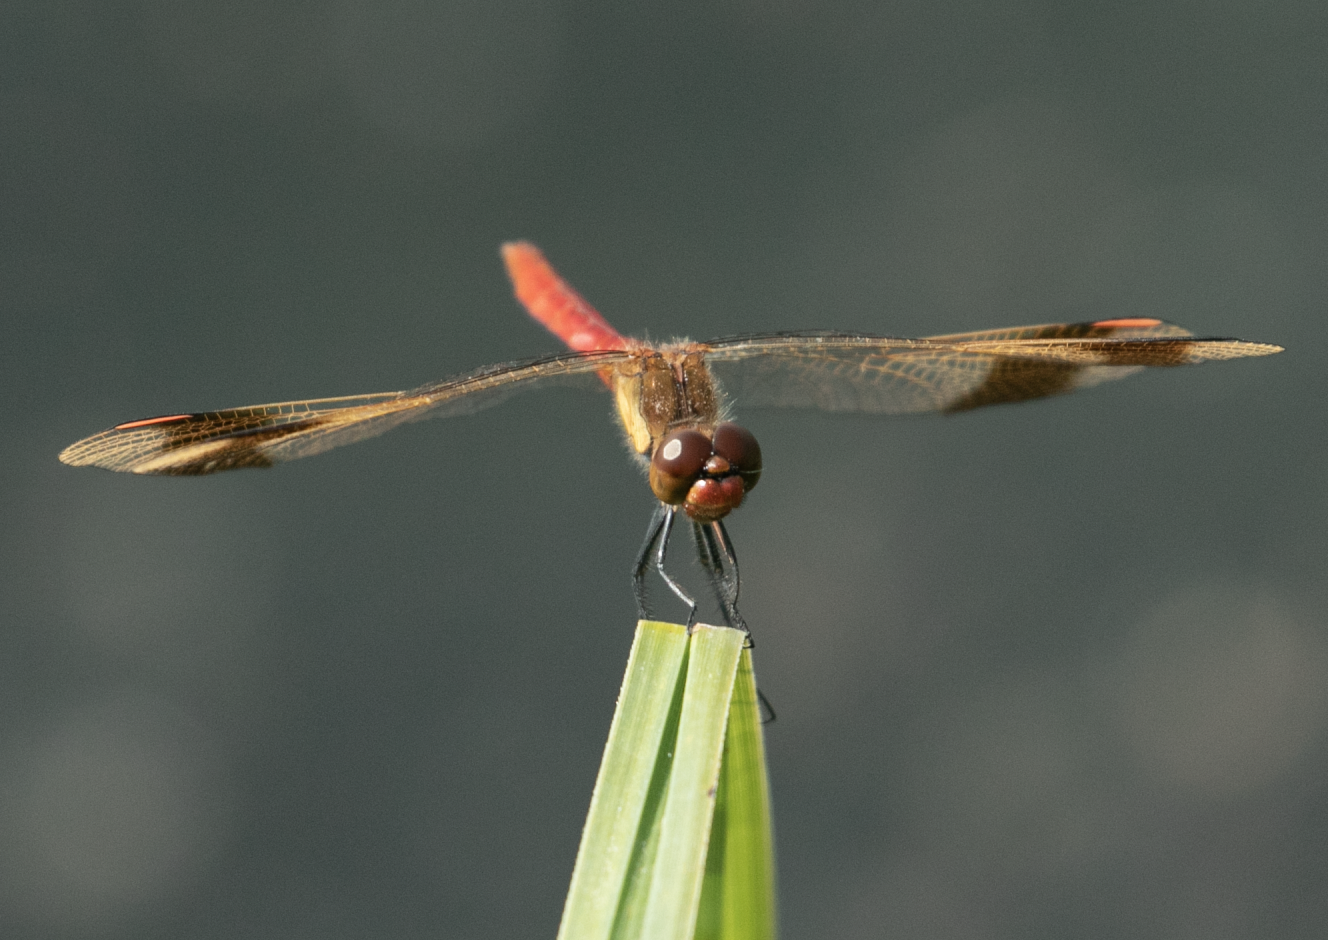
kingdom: Animalia
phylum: Arthropoda
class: Insecta
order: Odonata
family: Libellulidae
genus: Sympetrum
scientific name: Sympetrum pedemontanum
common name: Banded darter
